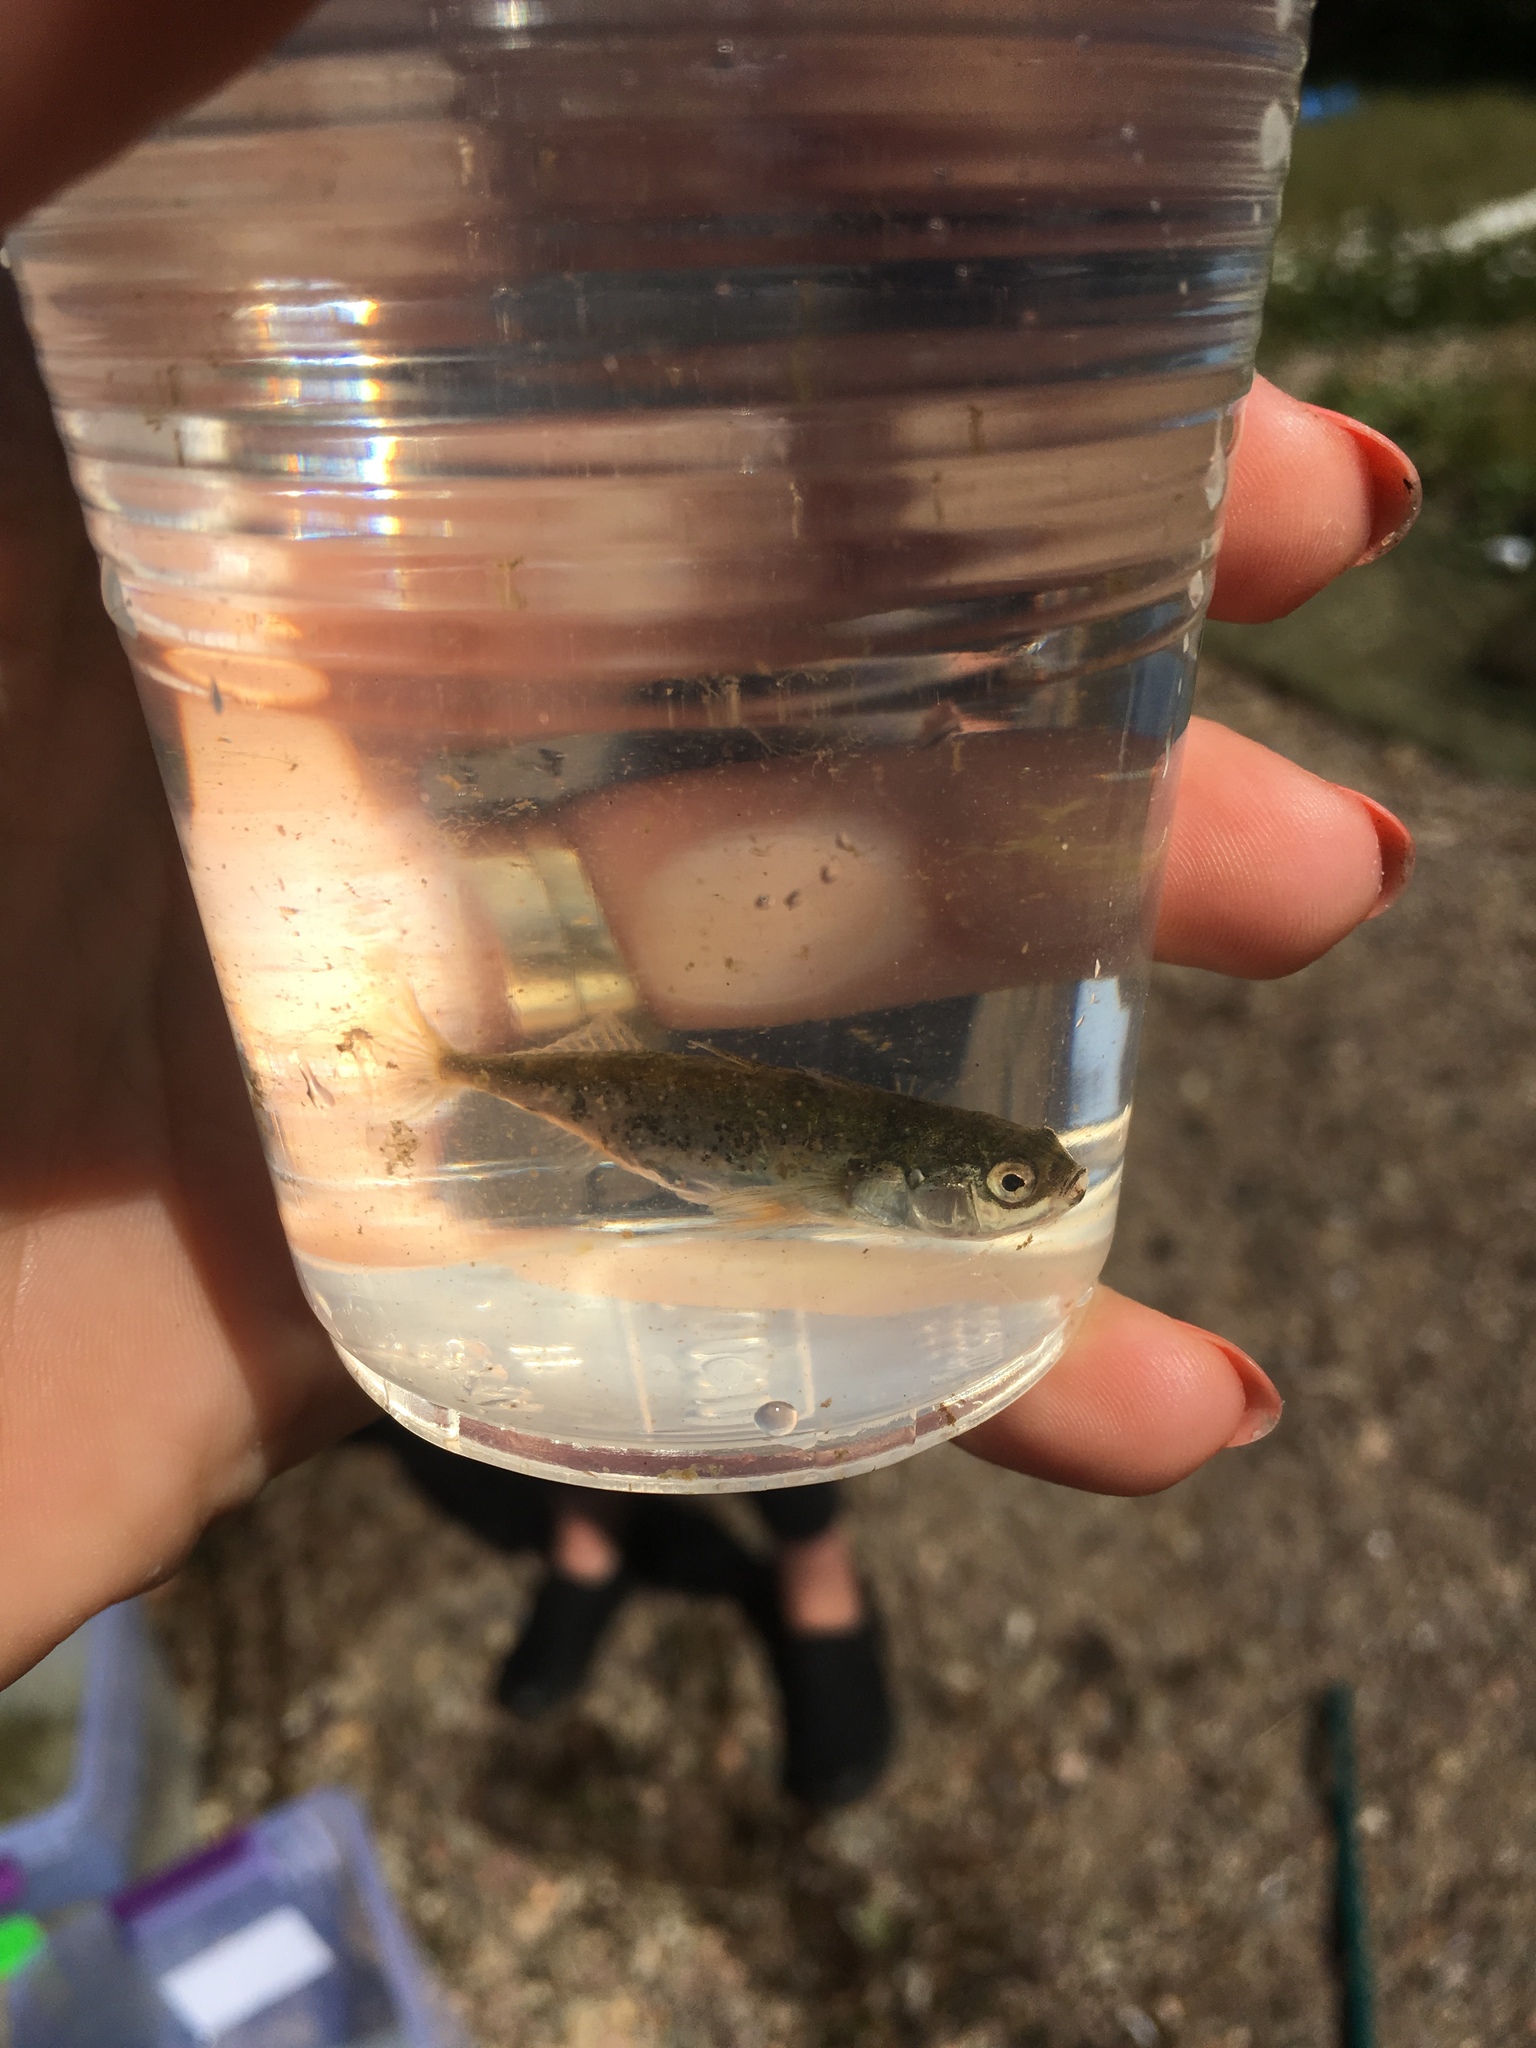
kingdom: Animalia
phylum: Chordata
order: Gasterosteiformes
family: Gasterosteidae
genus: Gasterosteus
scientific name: Gasterosteus wheatlandi
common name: Blackspotted stickleback
